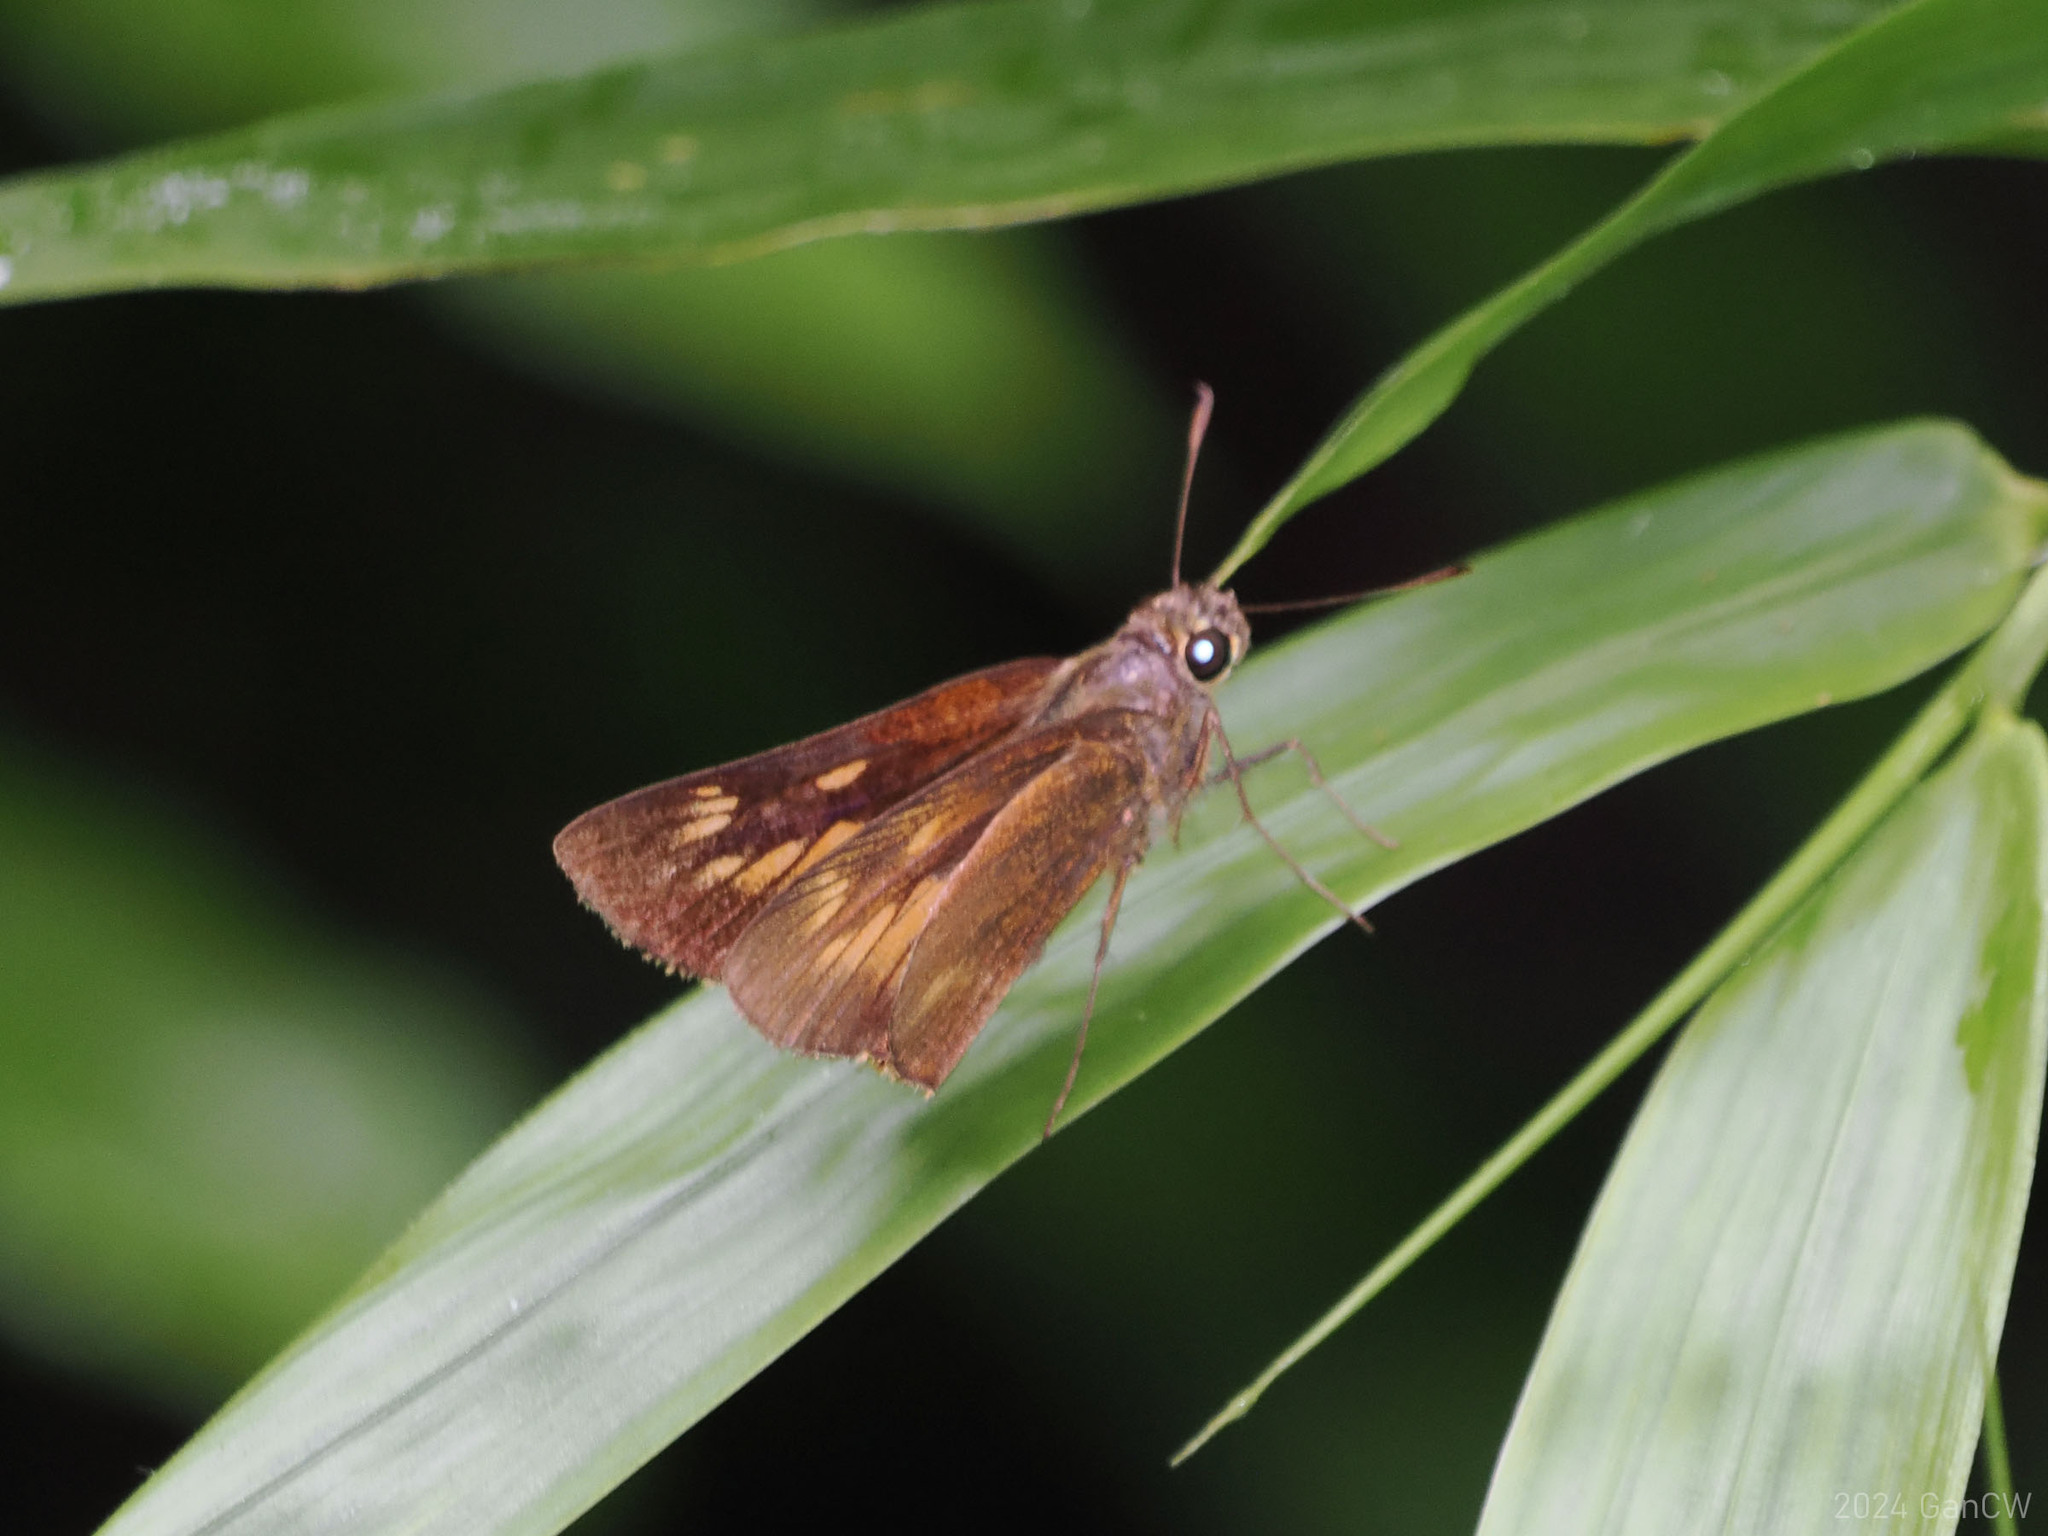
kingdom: Animalia
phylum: Arthropoda
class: Insecta
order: Lepidoptera
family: Hesperiidae
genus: Prusiana
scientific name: Prusiana prusias
